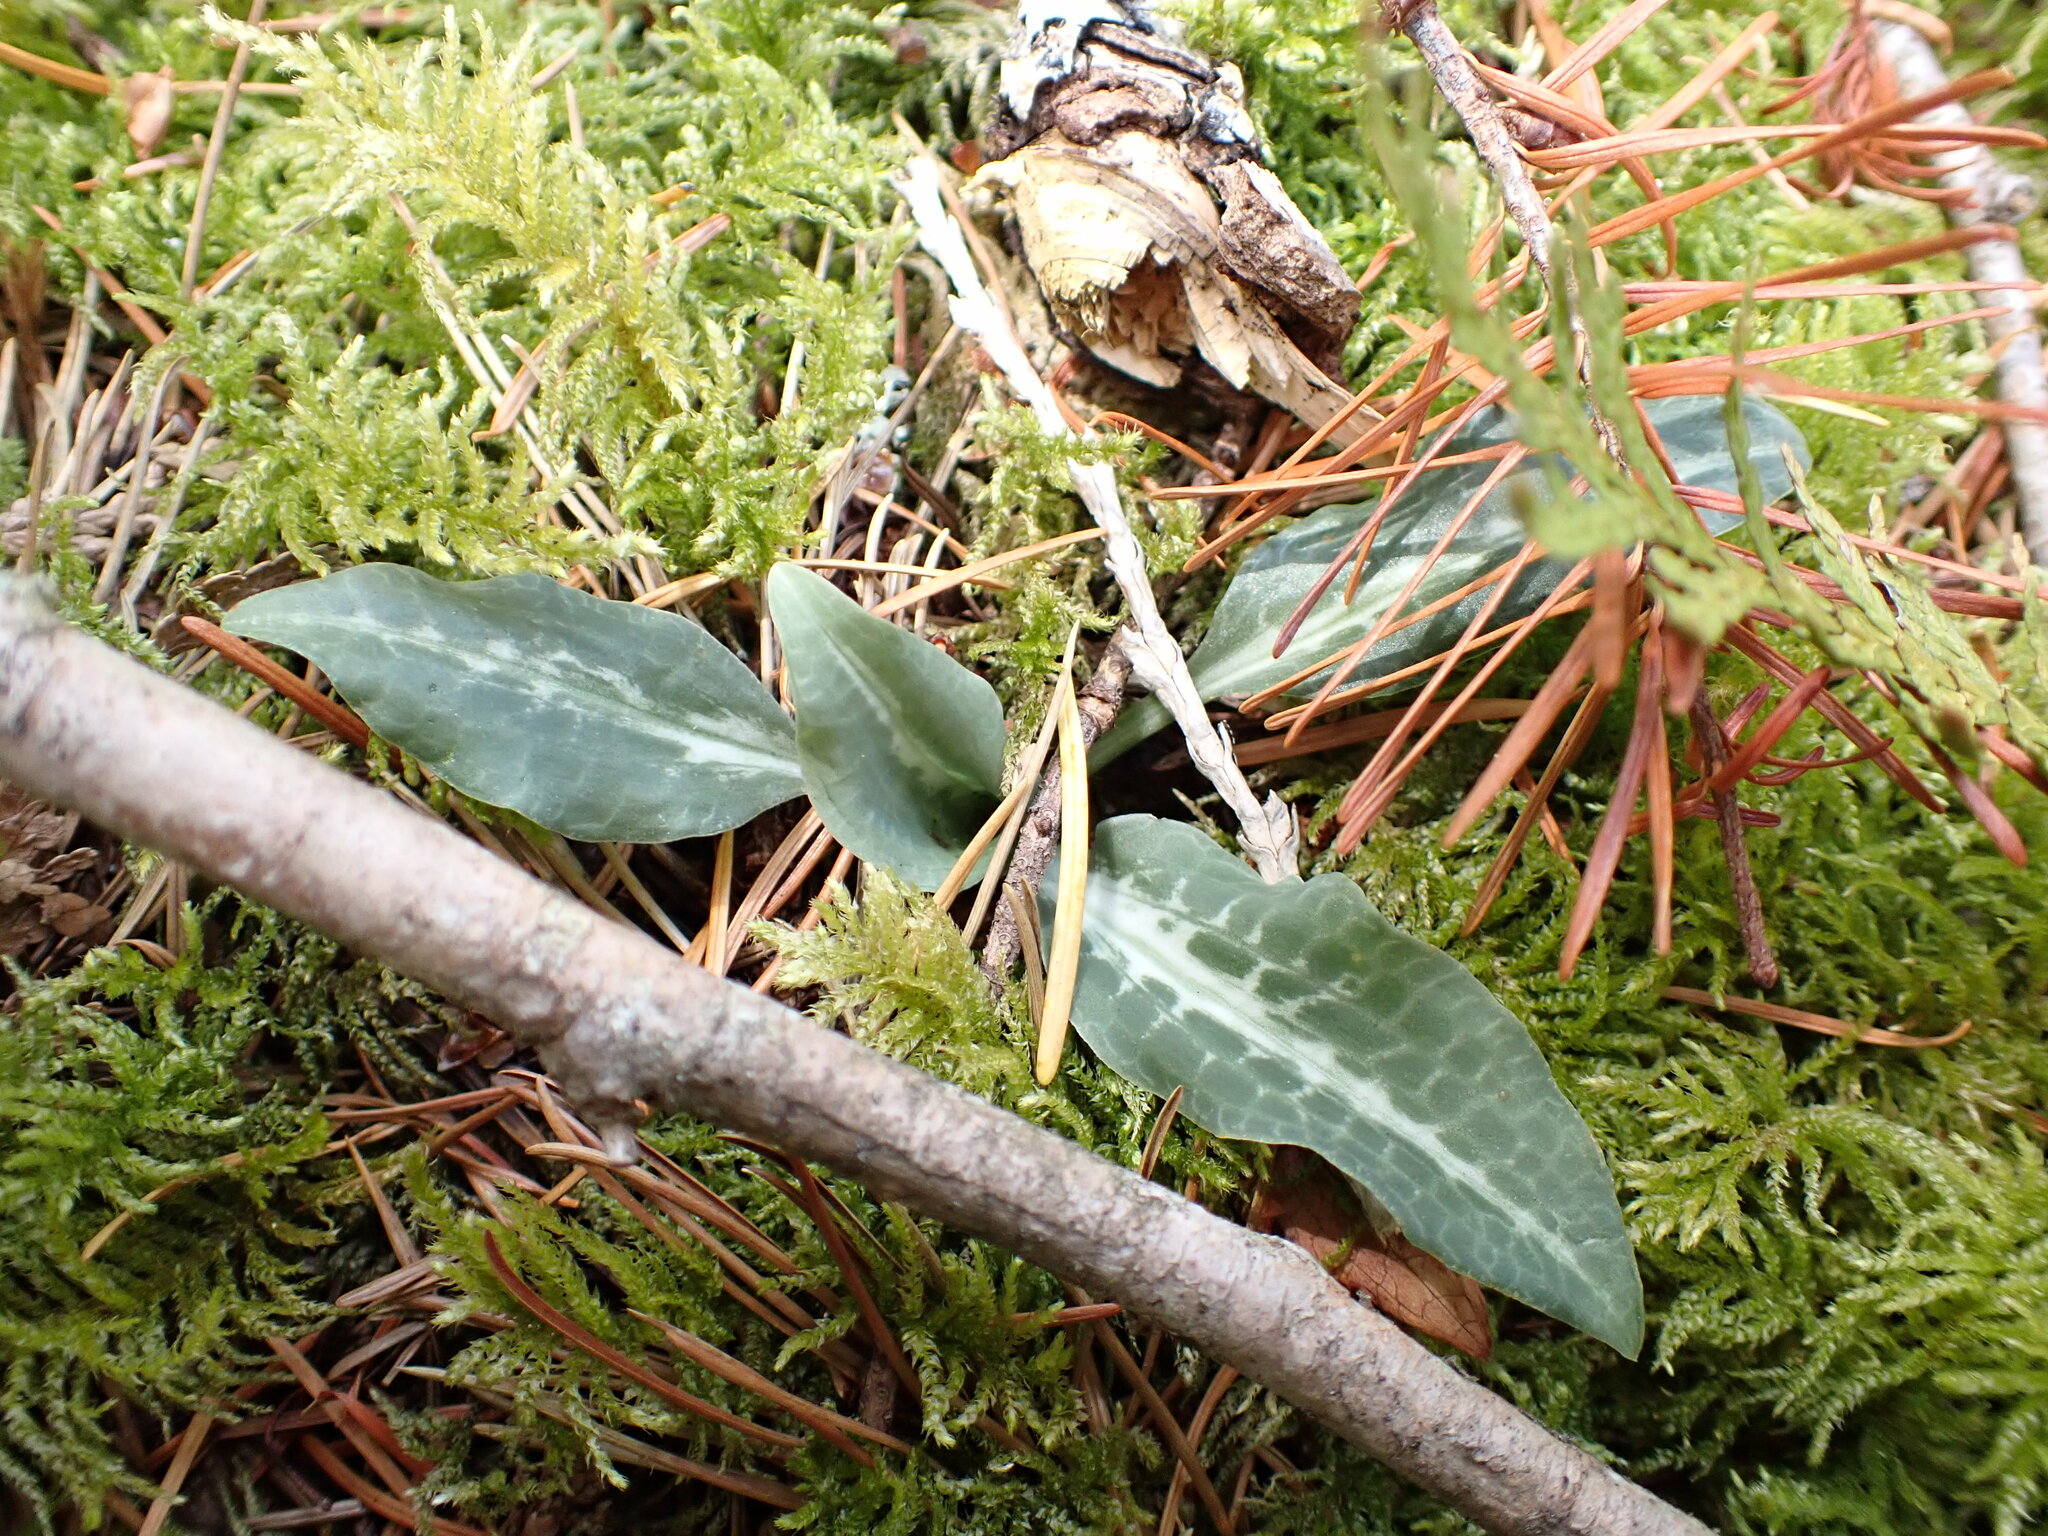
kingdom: Plantae
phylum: Tracheophyta
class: Liliopsida
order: Asparagales
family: Orchidaceae
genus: Goodyera
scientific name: Goodyera oblongifolia
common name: Giant rattlesnake-plantain
